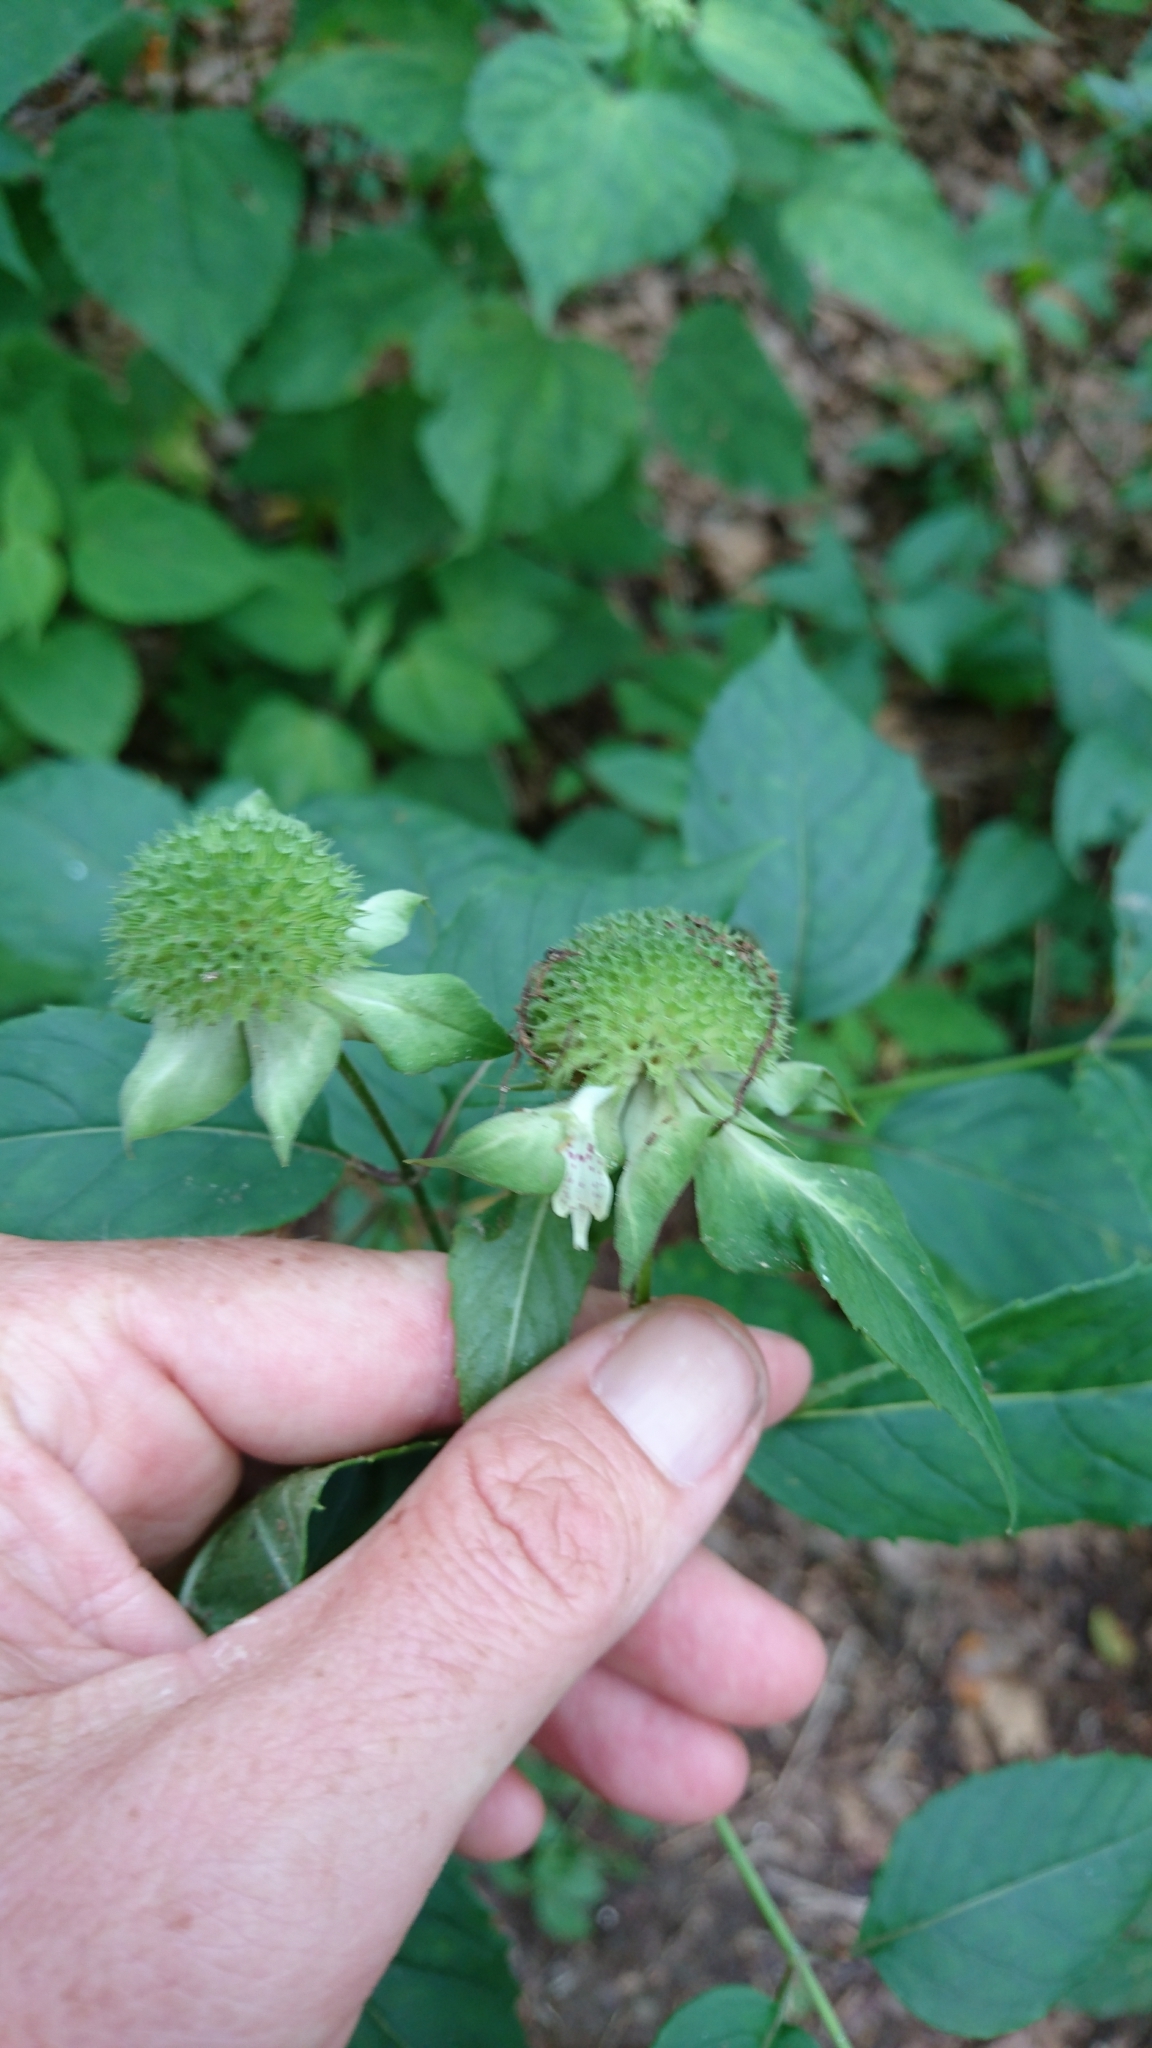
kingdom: Plantae
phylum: Tracheophyta
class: Magnoliopsida
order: Lamiales
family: Lamiaceae
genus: Monarda
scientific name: Monarda clinopodia
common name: Basil beebalm
